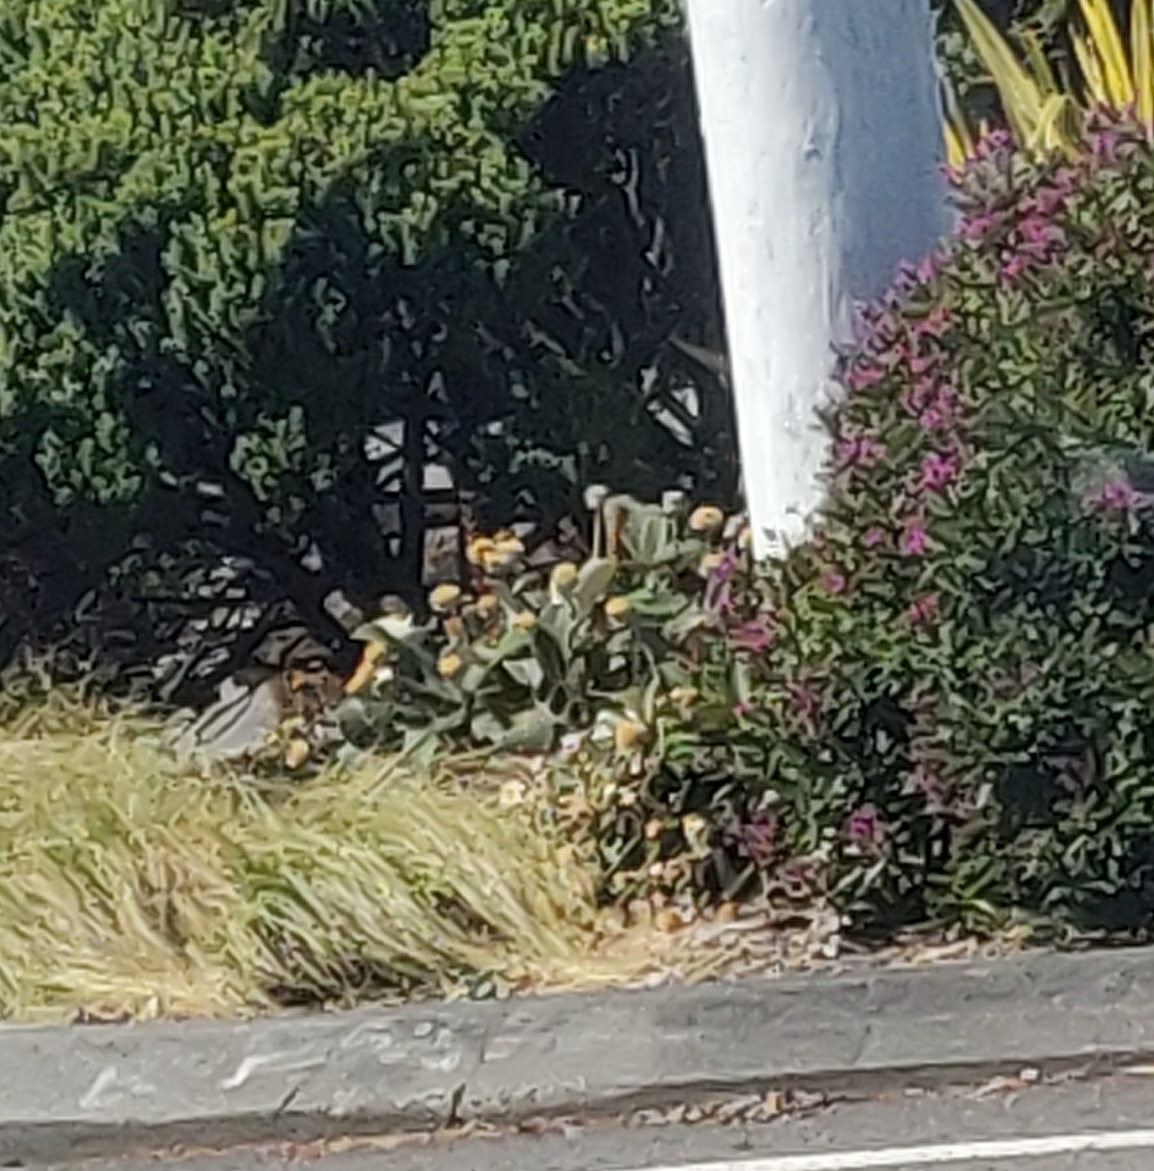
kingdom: Plantae
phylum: Tracheophyta
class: Magnoliopsida
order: Lamiales
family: Orobanchaceae
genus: Orobanche
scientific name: Orobanche minor
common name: Common broomrape
